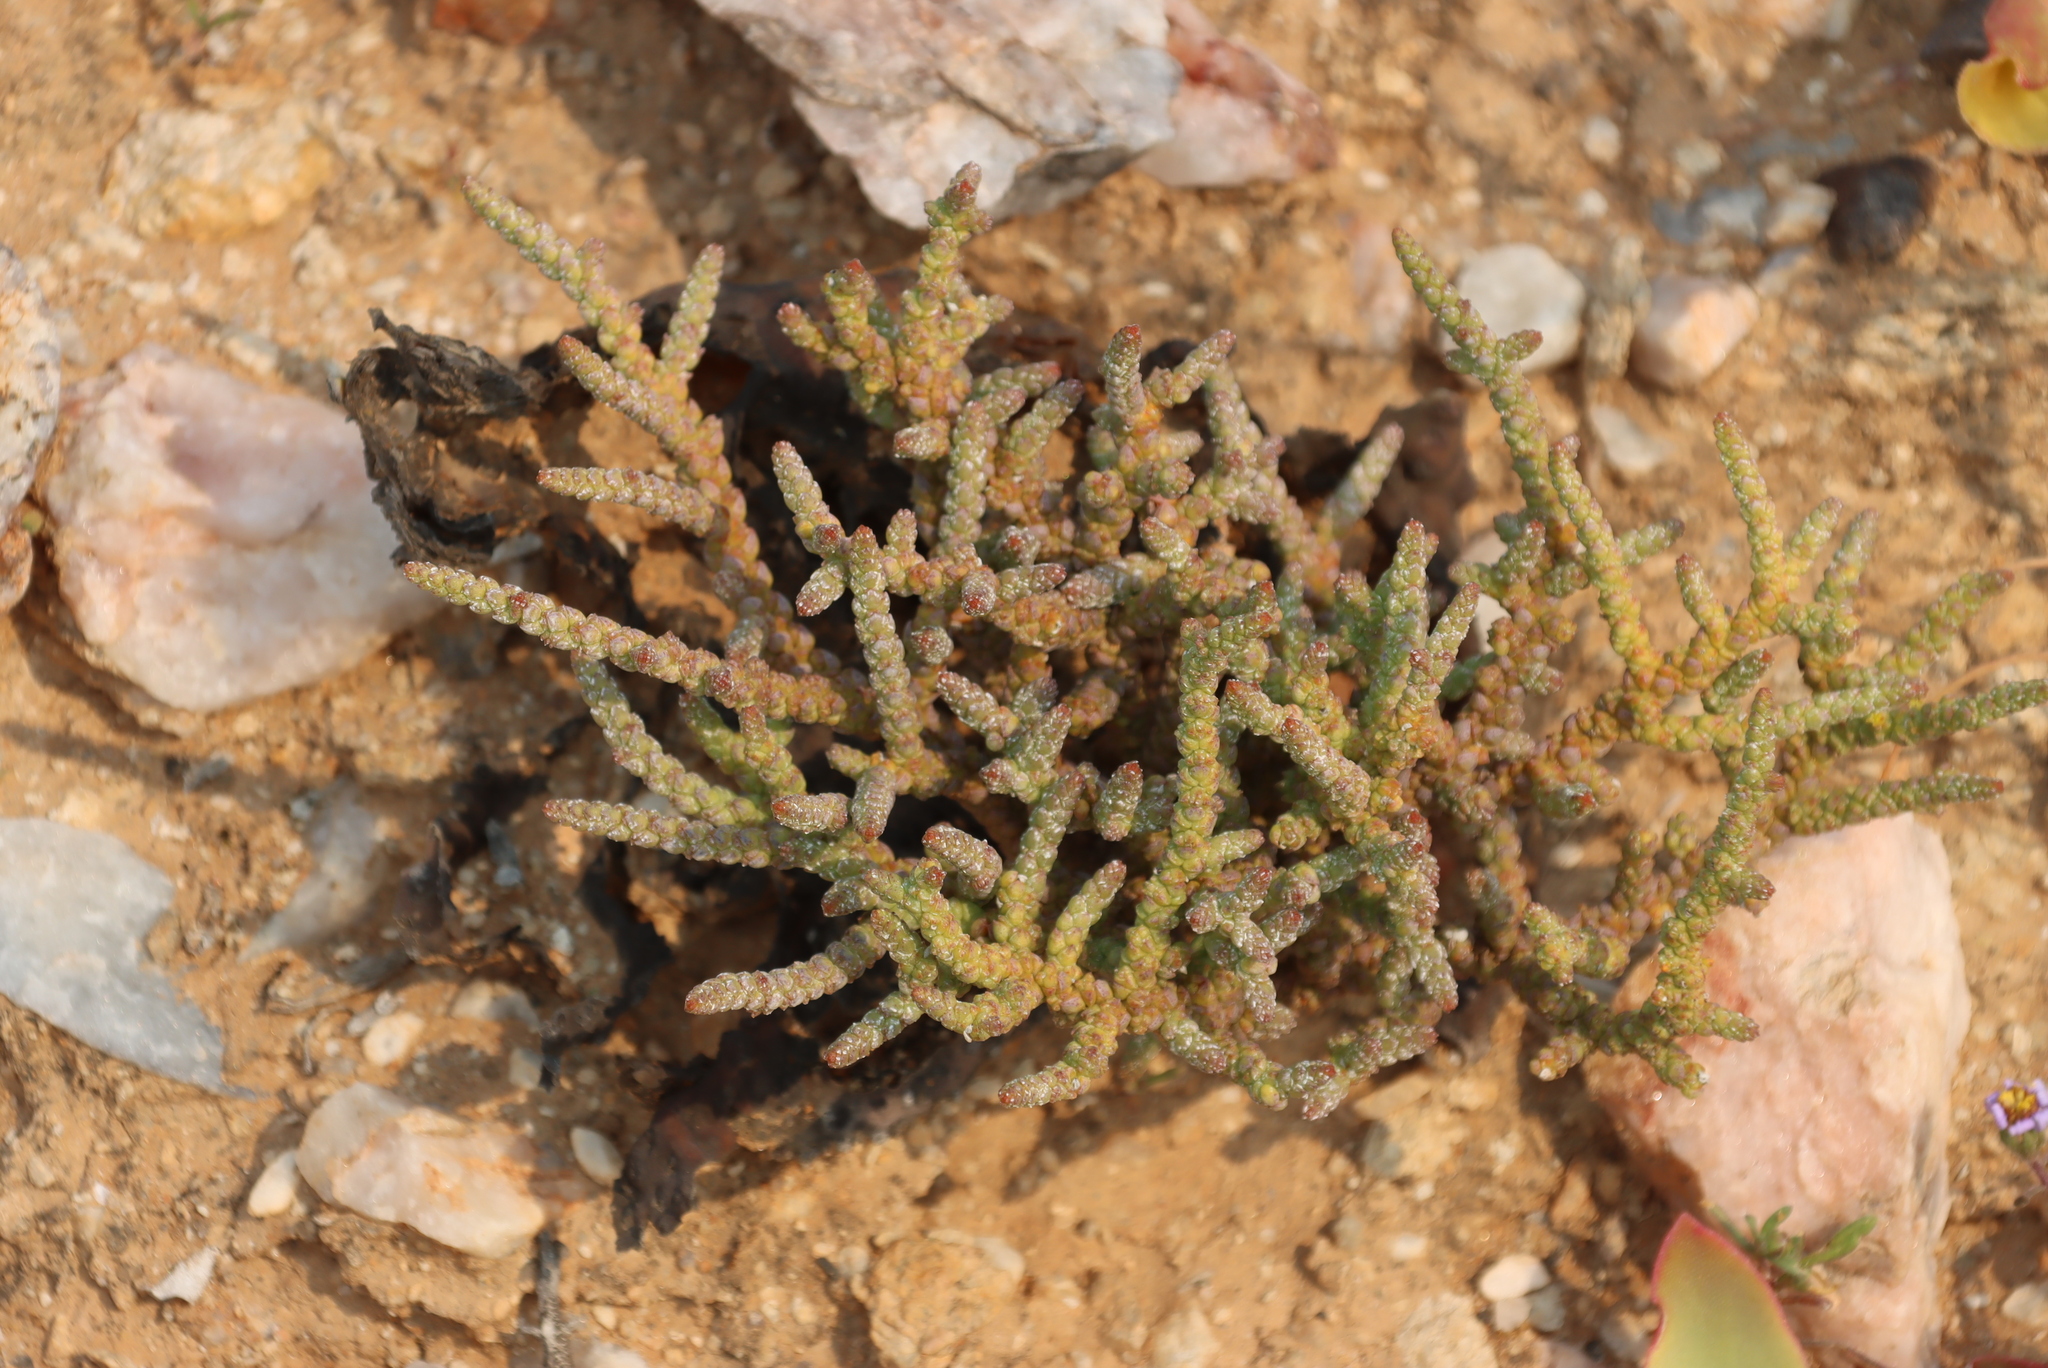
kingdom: Plantae
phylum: Tracheophyta
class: Magnoliopsida
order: Saxifragales
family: Crassulaceae
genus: Crassula
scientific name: Crassula muscosa
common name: Toy-cypress
